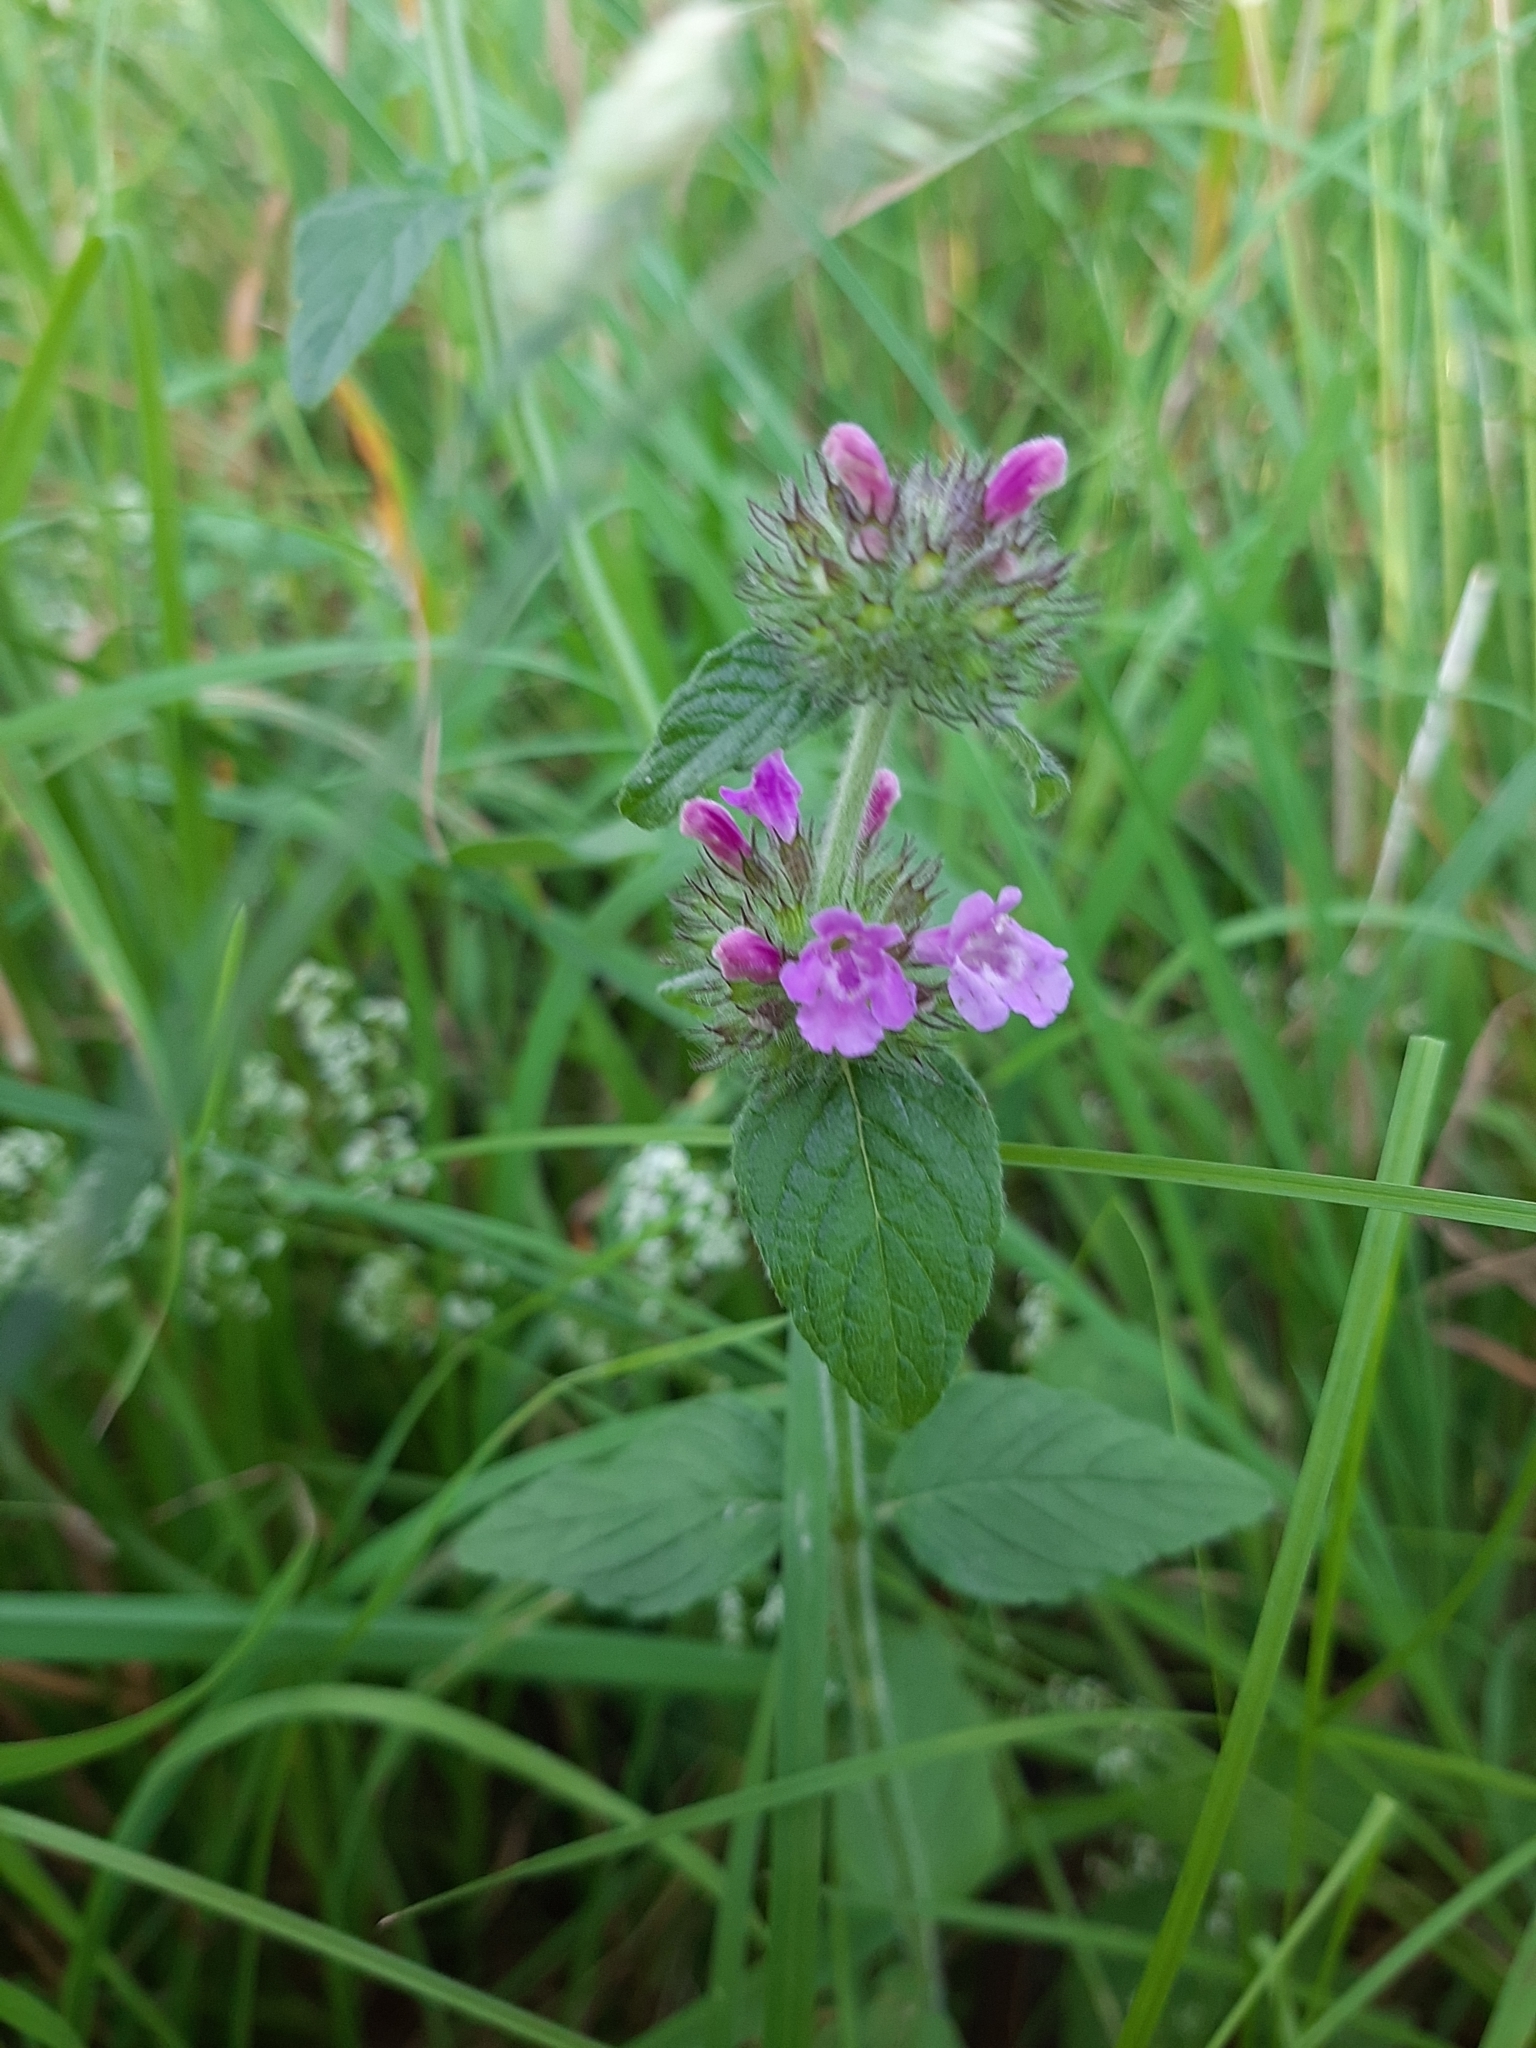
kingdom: Plantae
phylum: Tracheophyta
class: Magnoliopsida
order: Lamiales
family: Lamiaceae
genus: Clinopodium
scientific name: Clinopodium vulgare
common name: Wild basil
